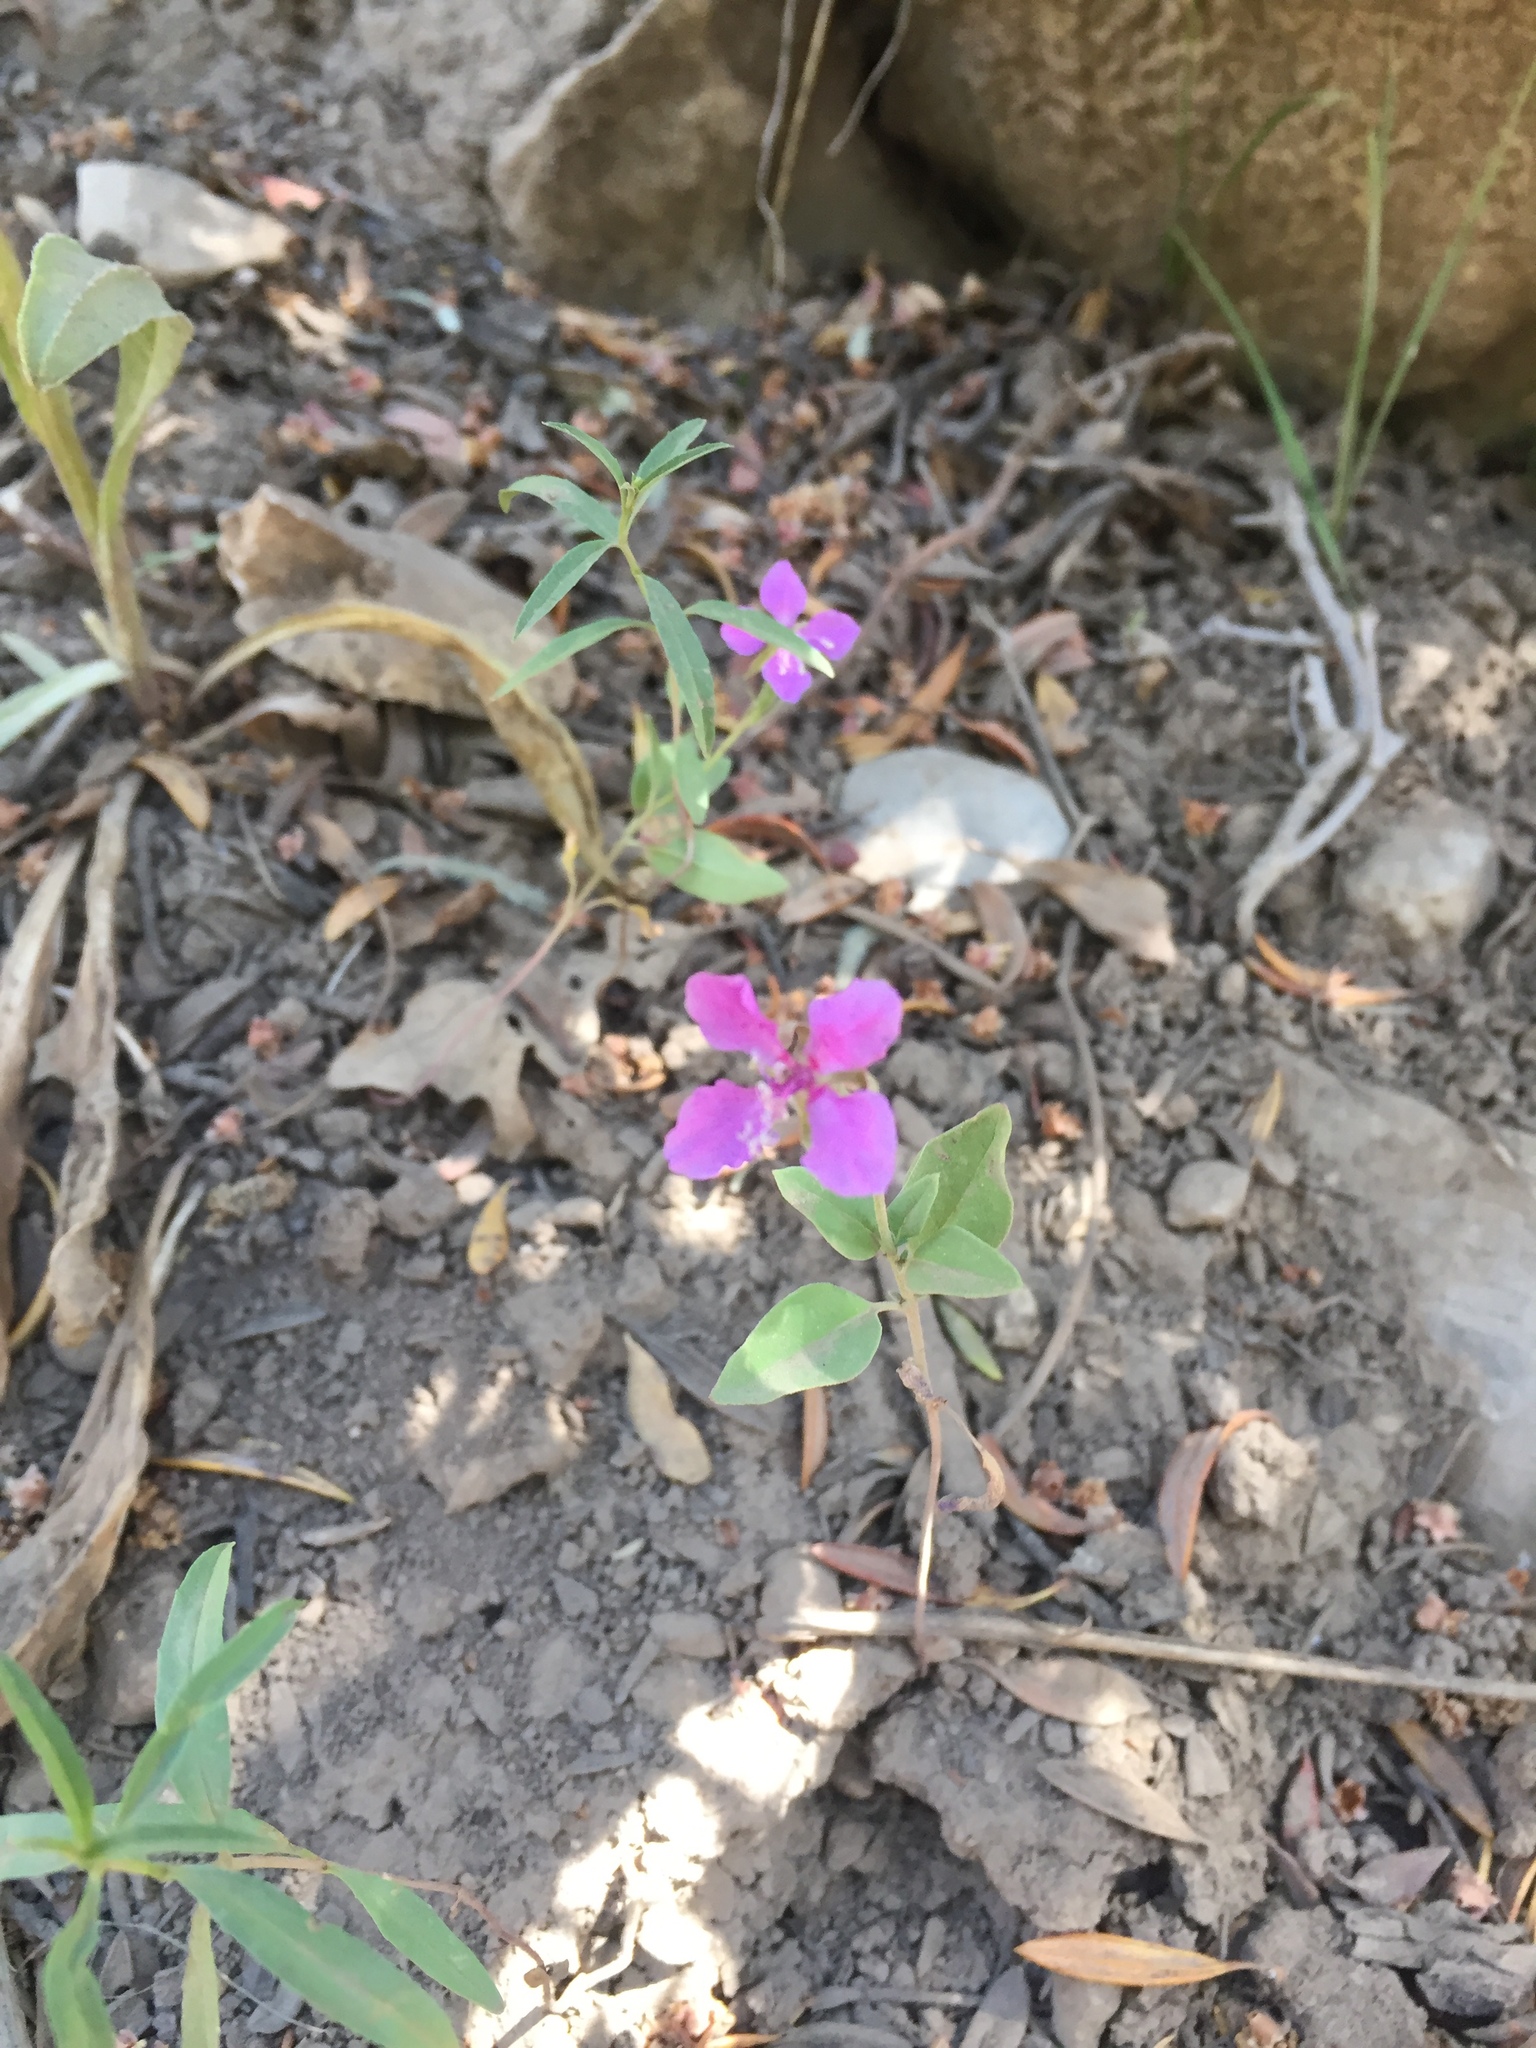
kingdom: Plantae
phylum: Tracheophyta
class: Magnoliopsida
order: Myrtales
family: Onagraceae
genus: Clarkia
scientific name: Clarkia rhomboidea
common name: Broadleaf clarkia
